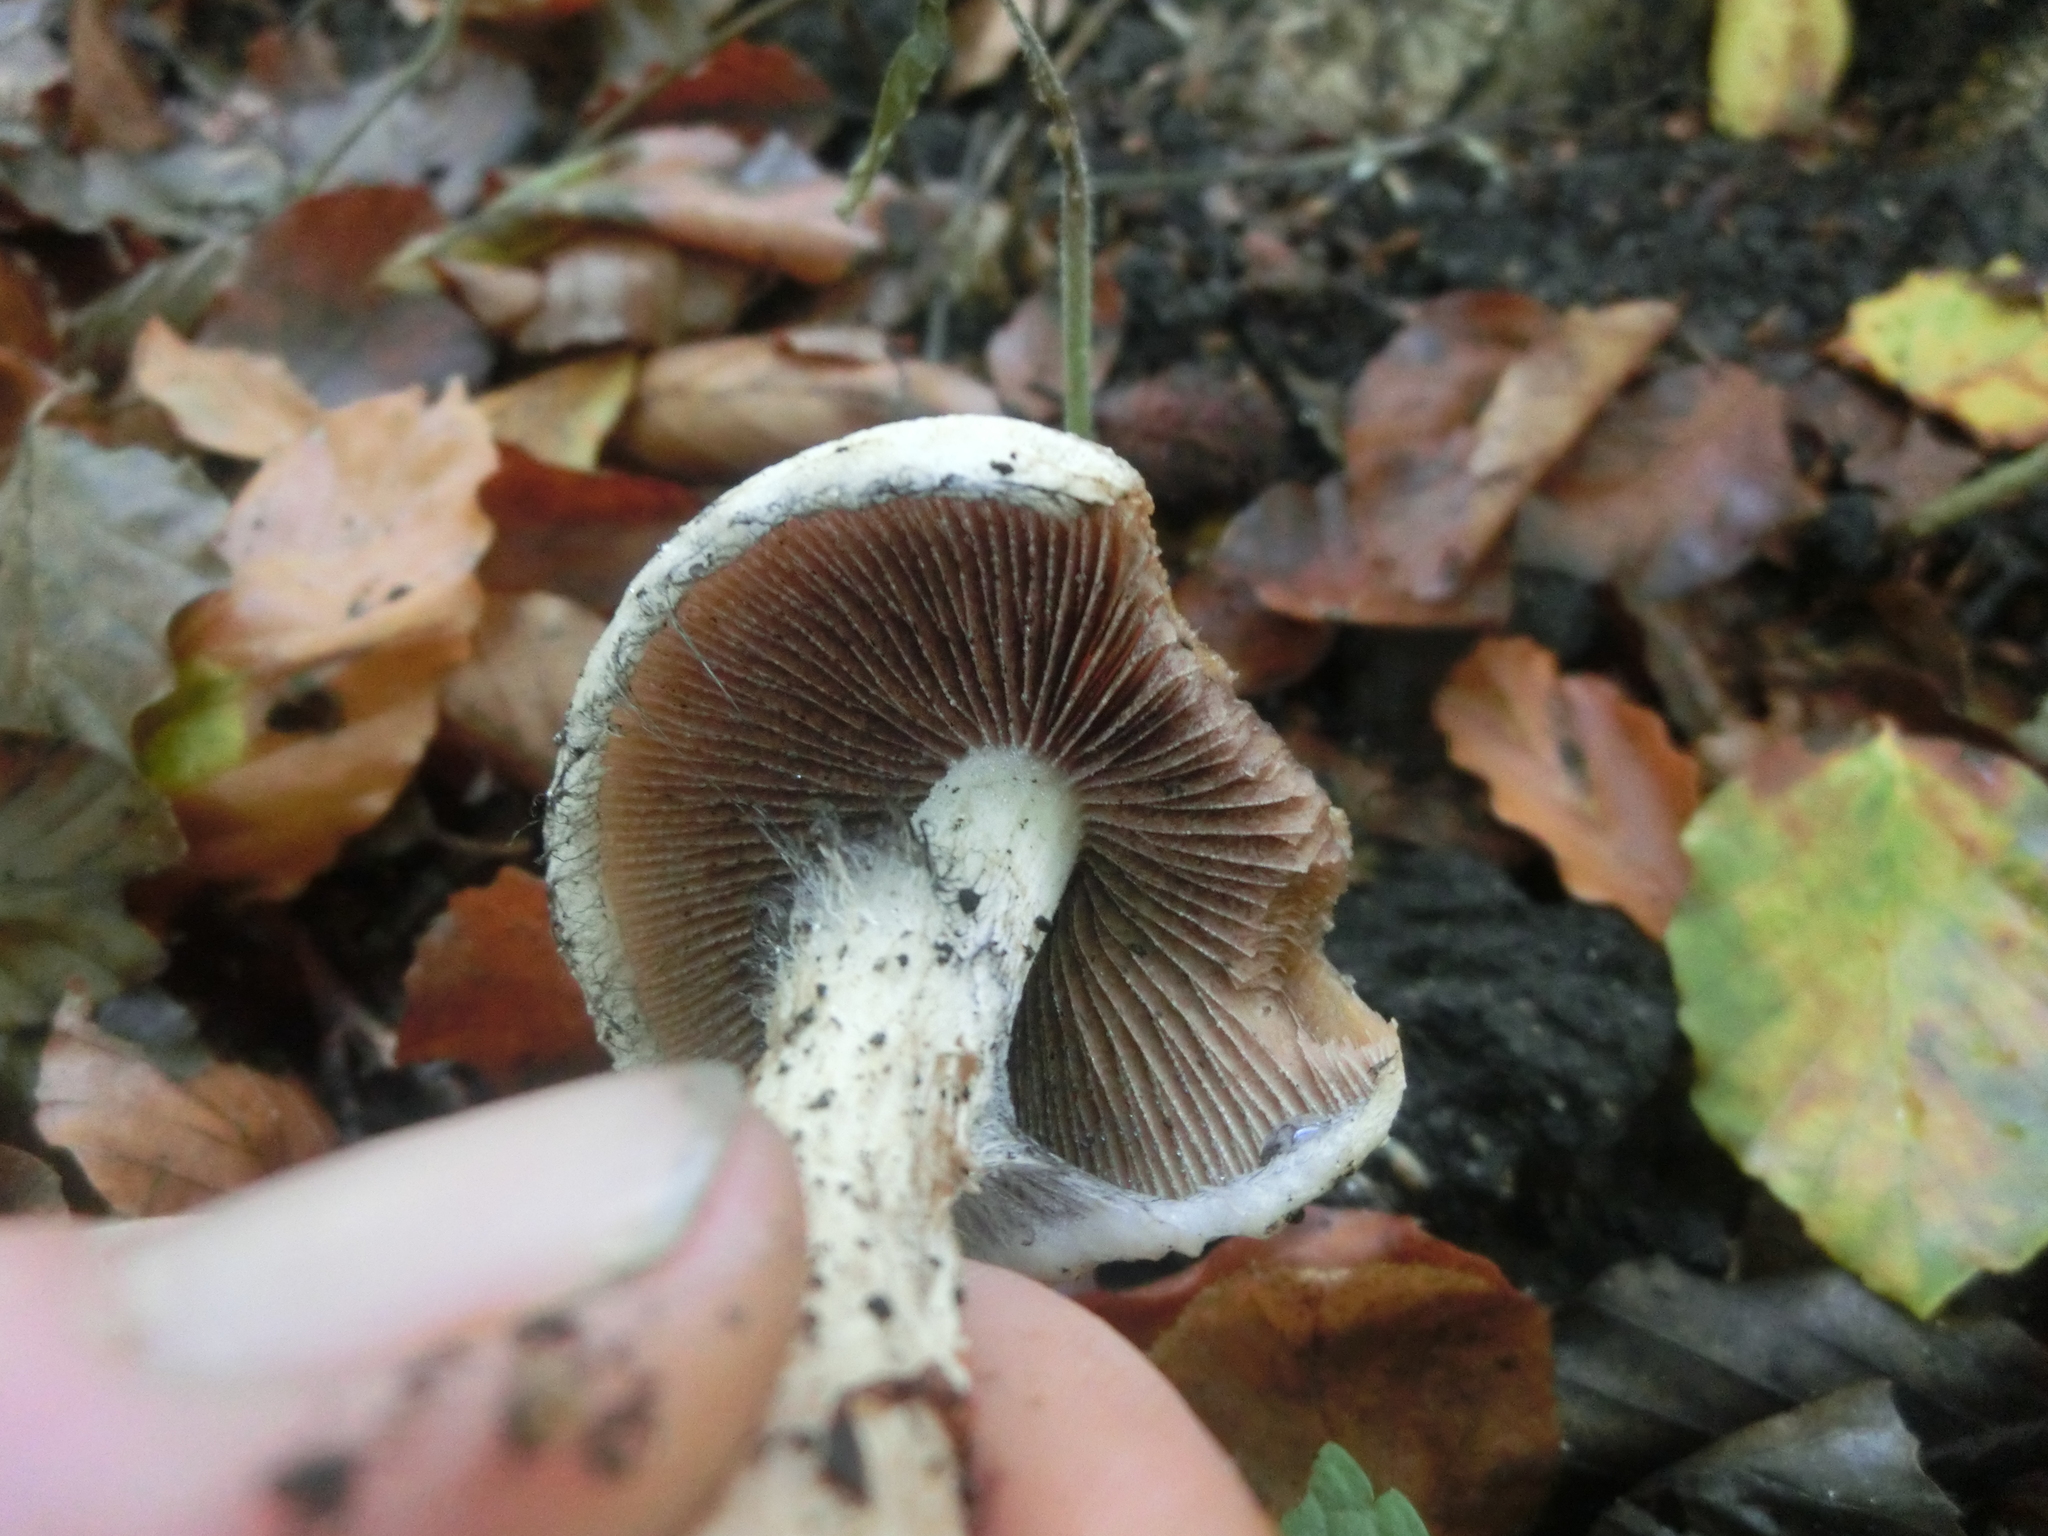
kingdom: Fungi
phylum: Basidiomycota
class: Agaricomycetes
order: Agaricales
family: Psathyrellaceae
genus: Lacrymaria
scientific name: Lacrymaria lacrymabunda
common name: Weeping widow
